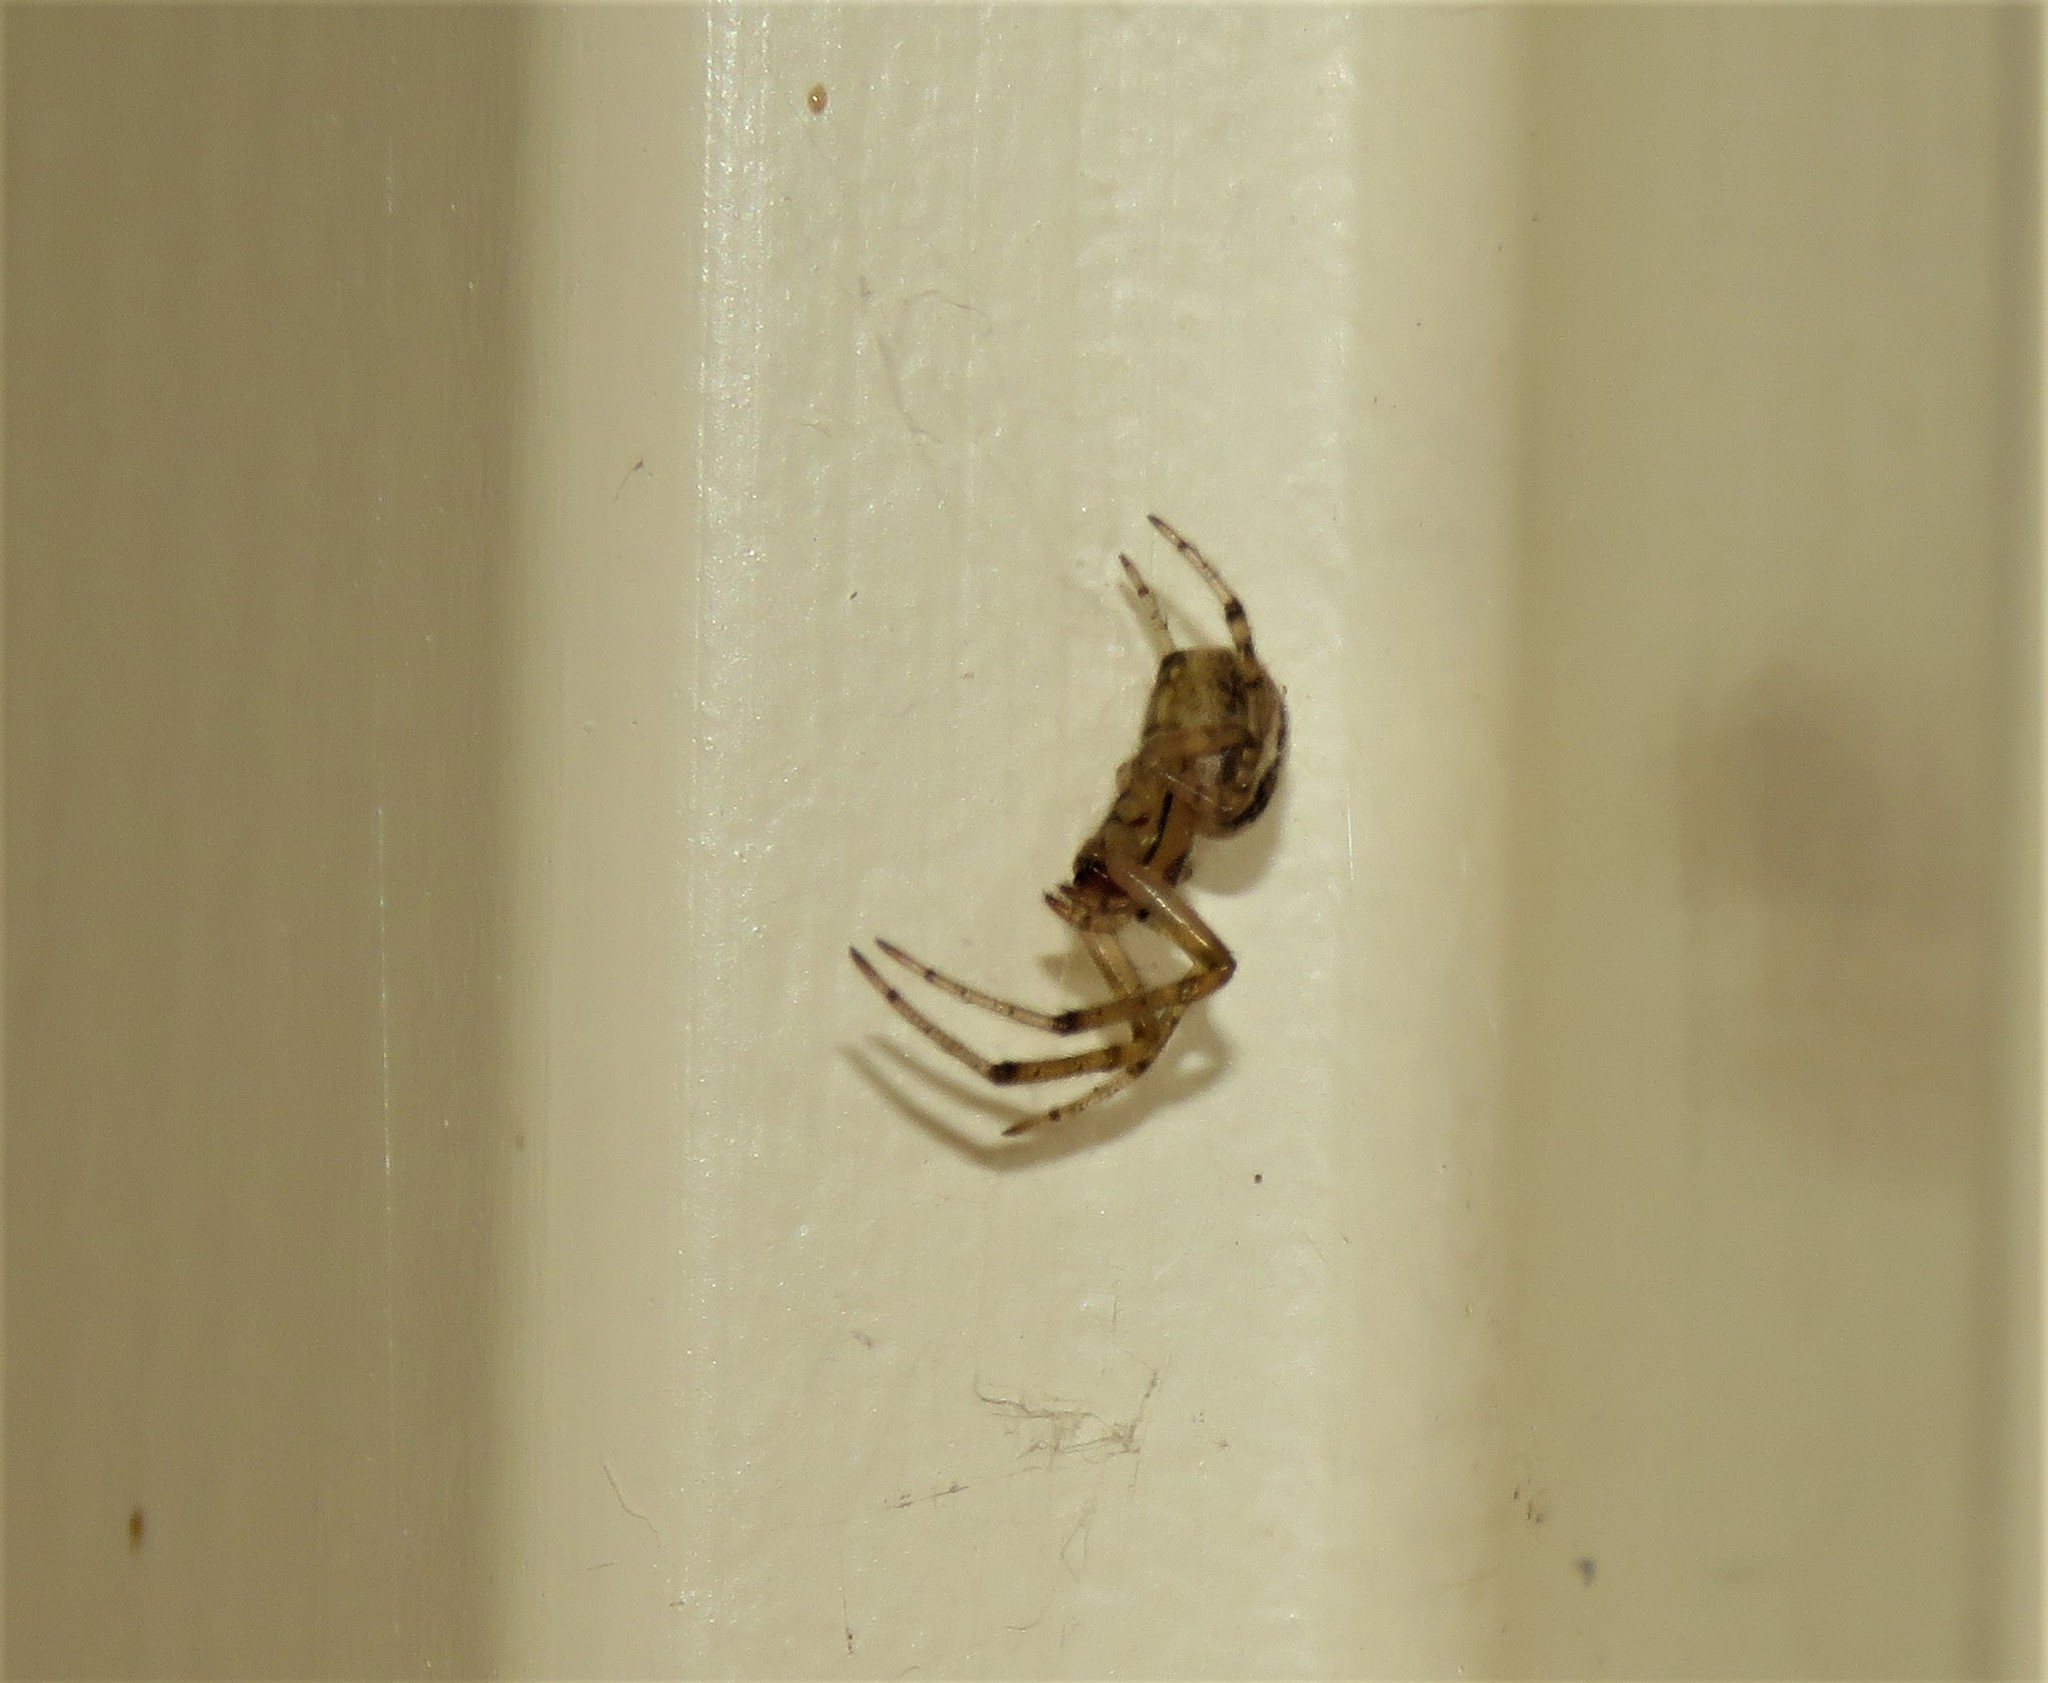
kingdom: Animalia
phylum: Arthropoda
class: Arachnida
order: Araneae
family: Araneidae
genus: Zygiella
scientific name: Zygiella x-notata
